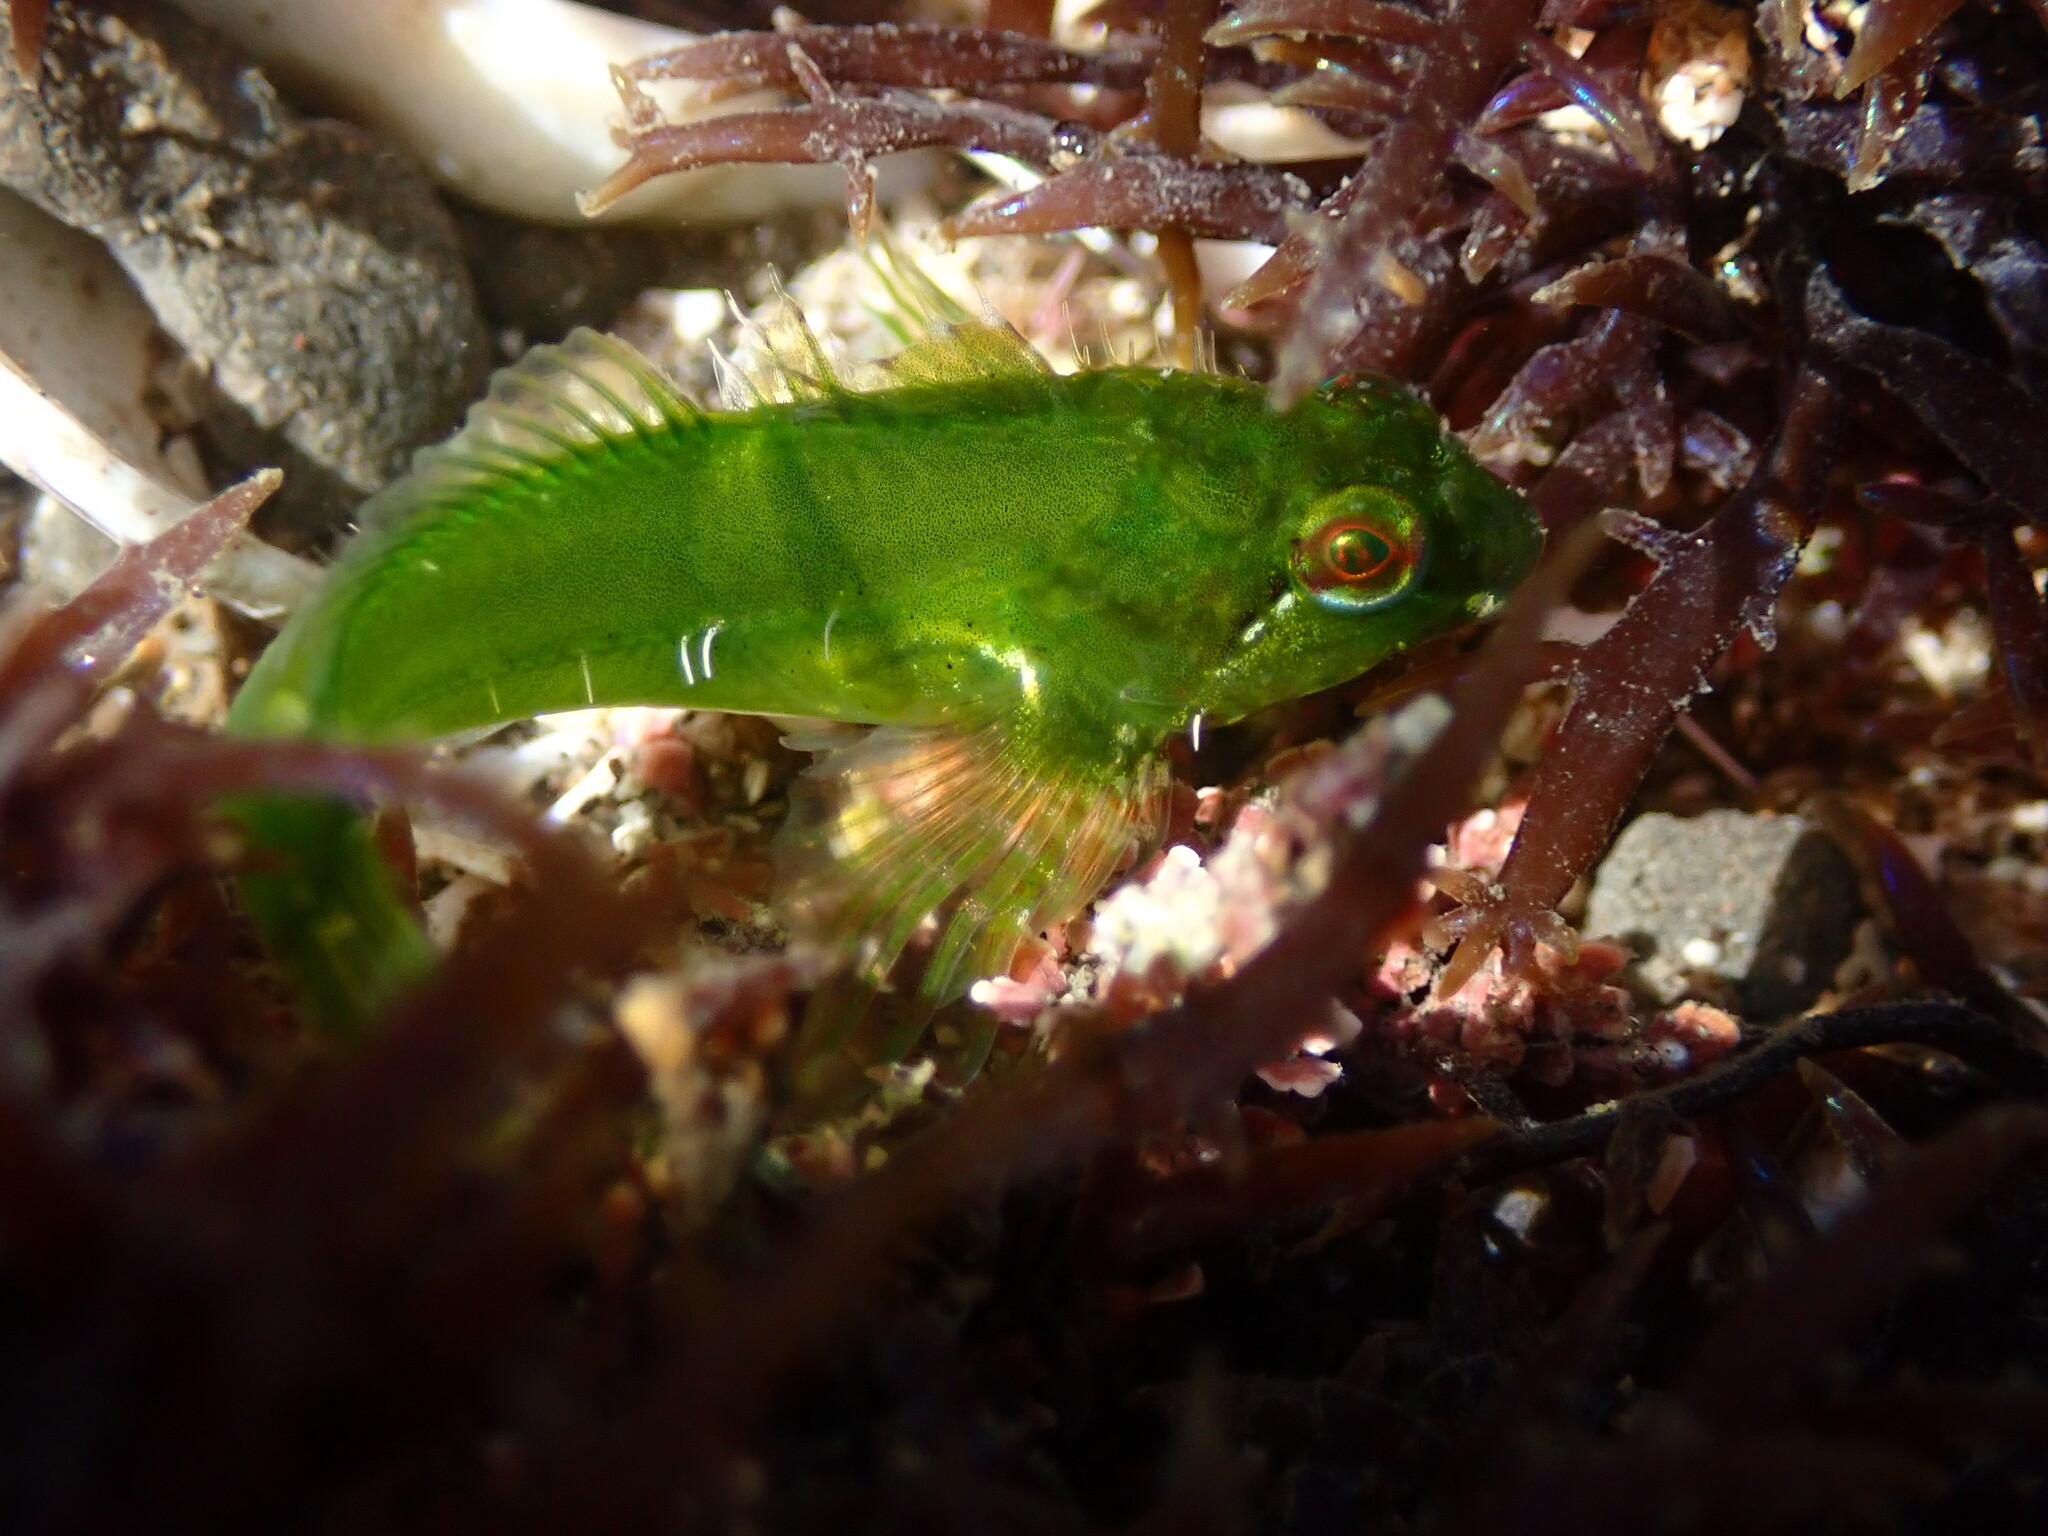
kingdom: Animalia
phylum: Chordata
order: Scorpaeniformes
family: Cottidae
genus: Oligocottus
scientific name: Oligocottus snyderi
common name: Fluffy sculpin
